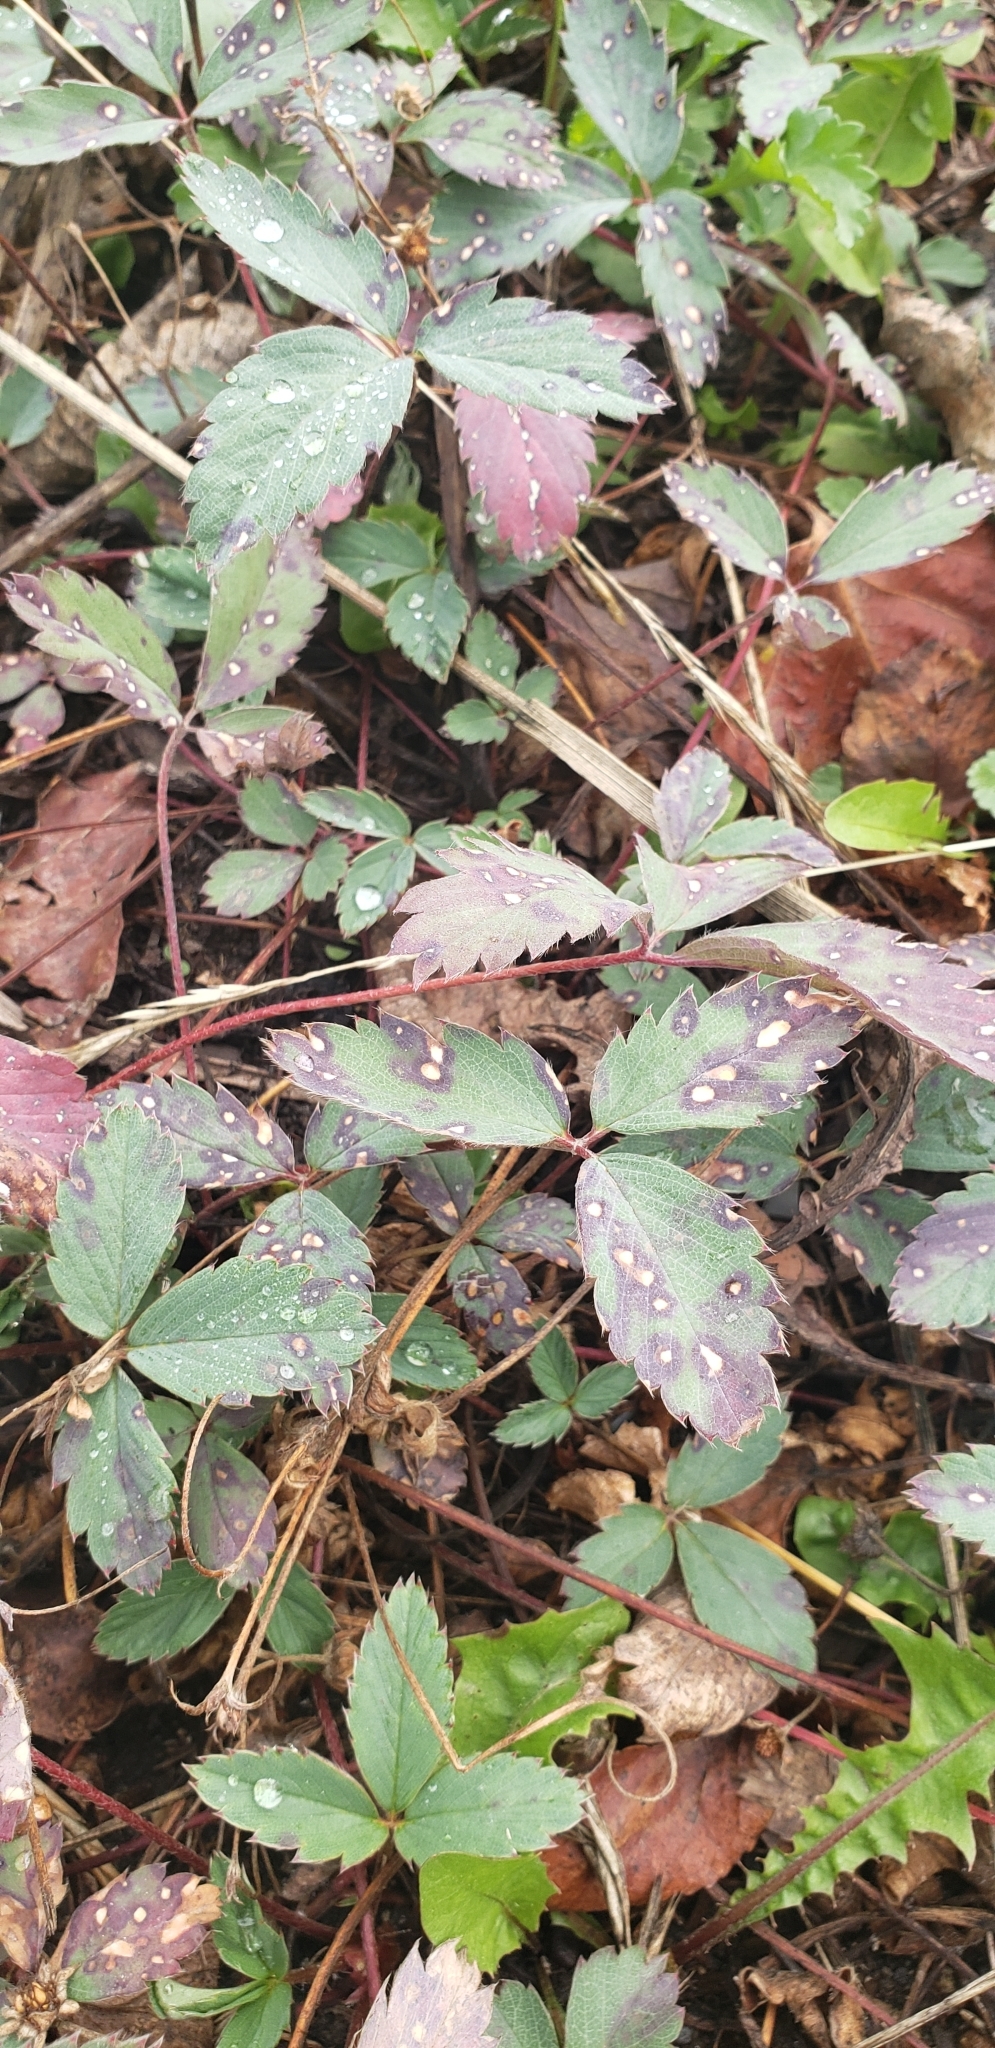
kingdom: Plantae
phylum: Tracheophyta
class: Magnoliopsida
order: Rosales
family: Rosaceae
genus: Fragaria
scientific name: Fragaria virginiana
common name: Thickleaved wild strawberry
